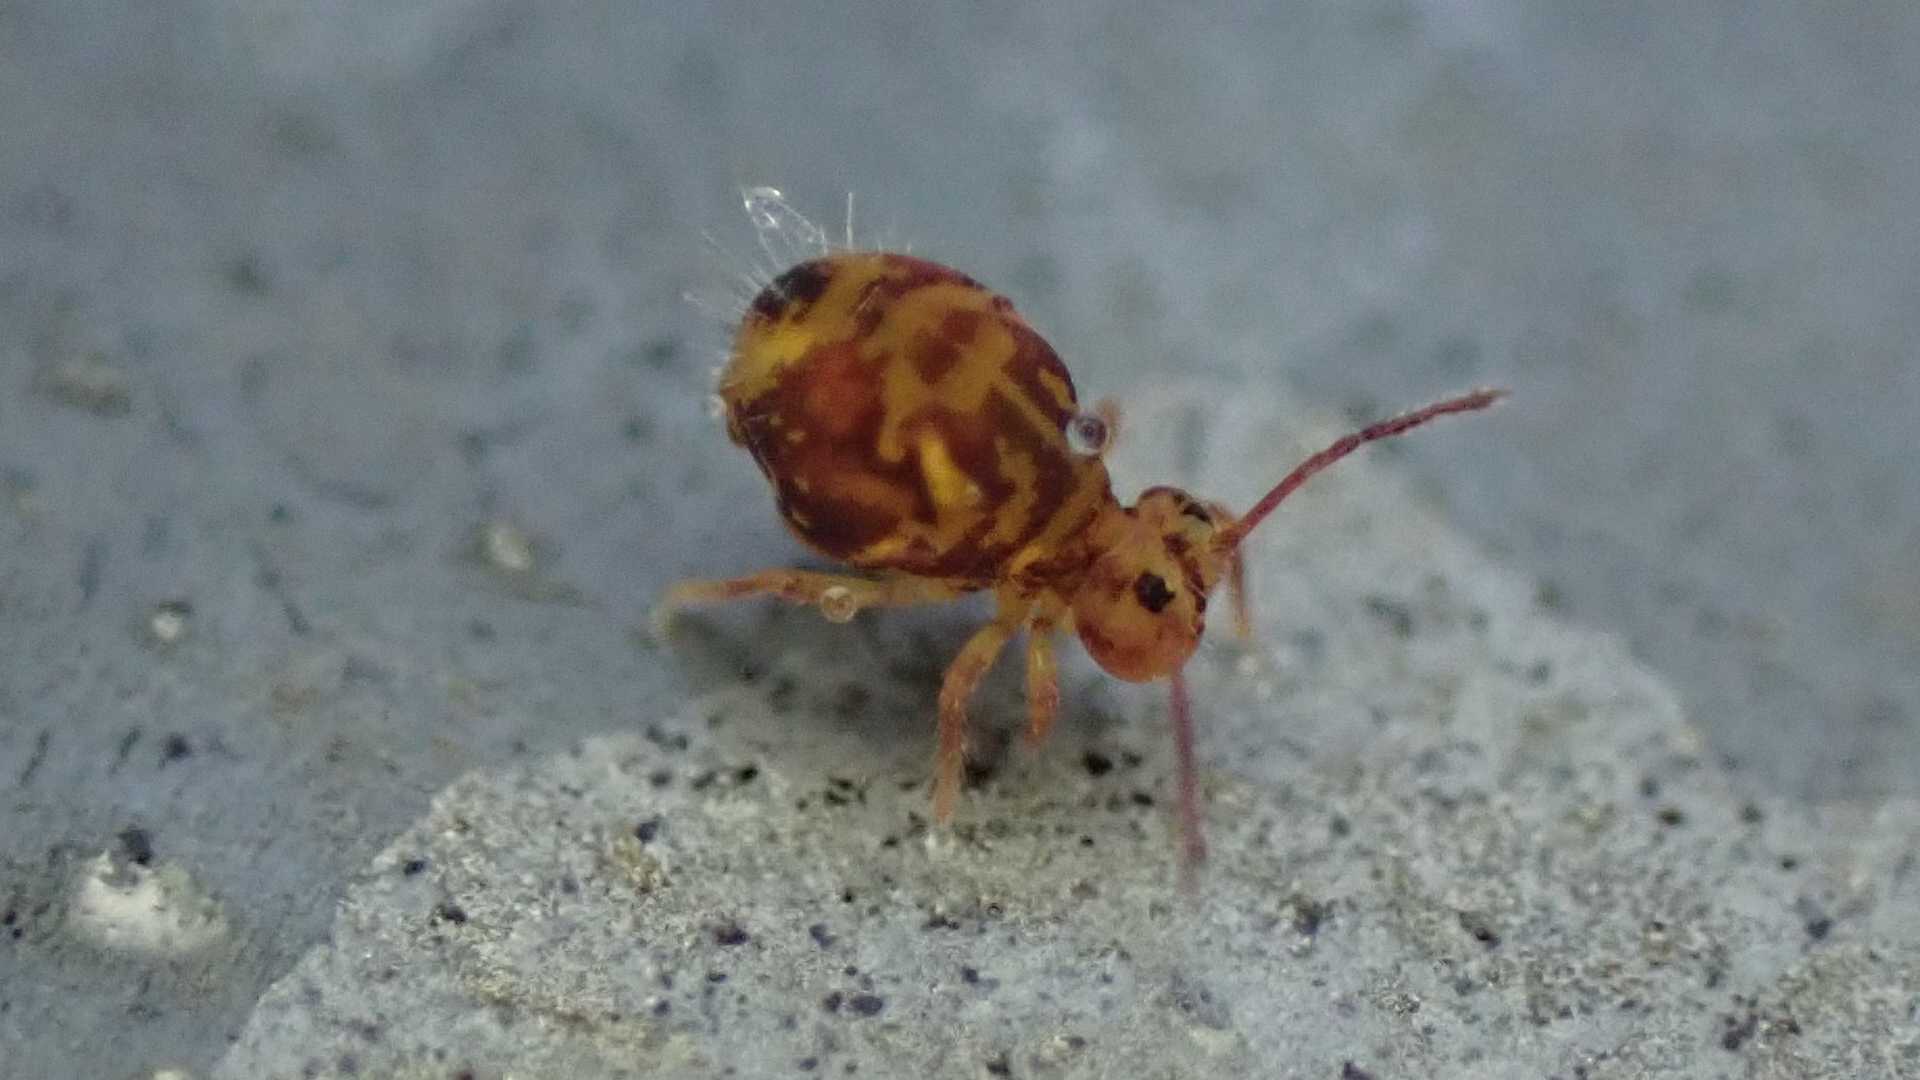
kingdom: Animalia
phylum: Arthropoda
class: Collembola
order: Symphypleona
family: Dicyrtomidae
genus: Dicyrtomina
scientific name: Dicyrtomina ornata
